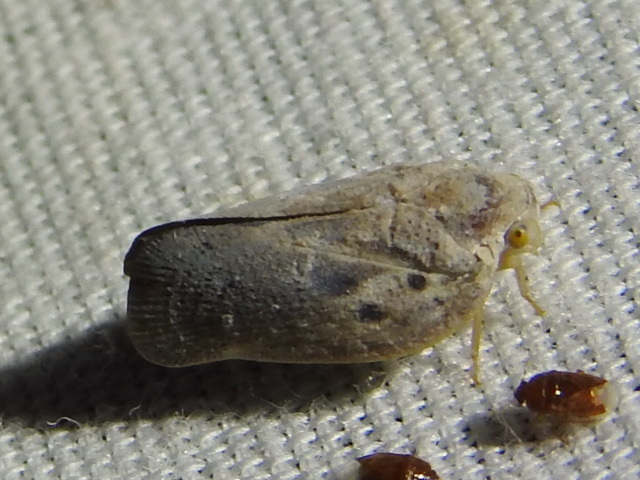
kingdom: Animalia
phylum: Arthropoda
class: Insecta
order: Hemiptera
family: Flatidae
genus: Metcalfa
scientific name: Metcalfa pruinosa
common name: Citrus flatid planthopper
